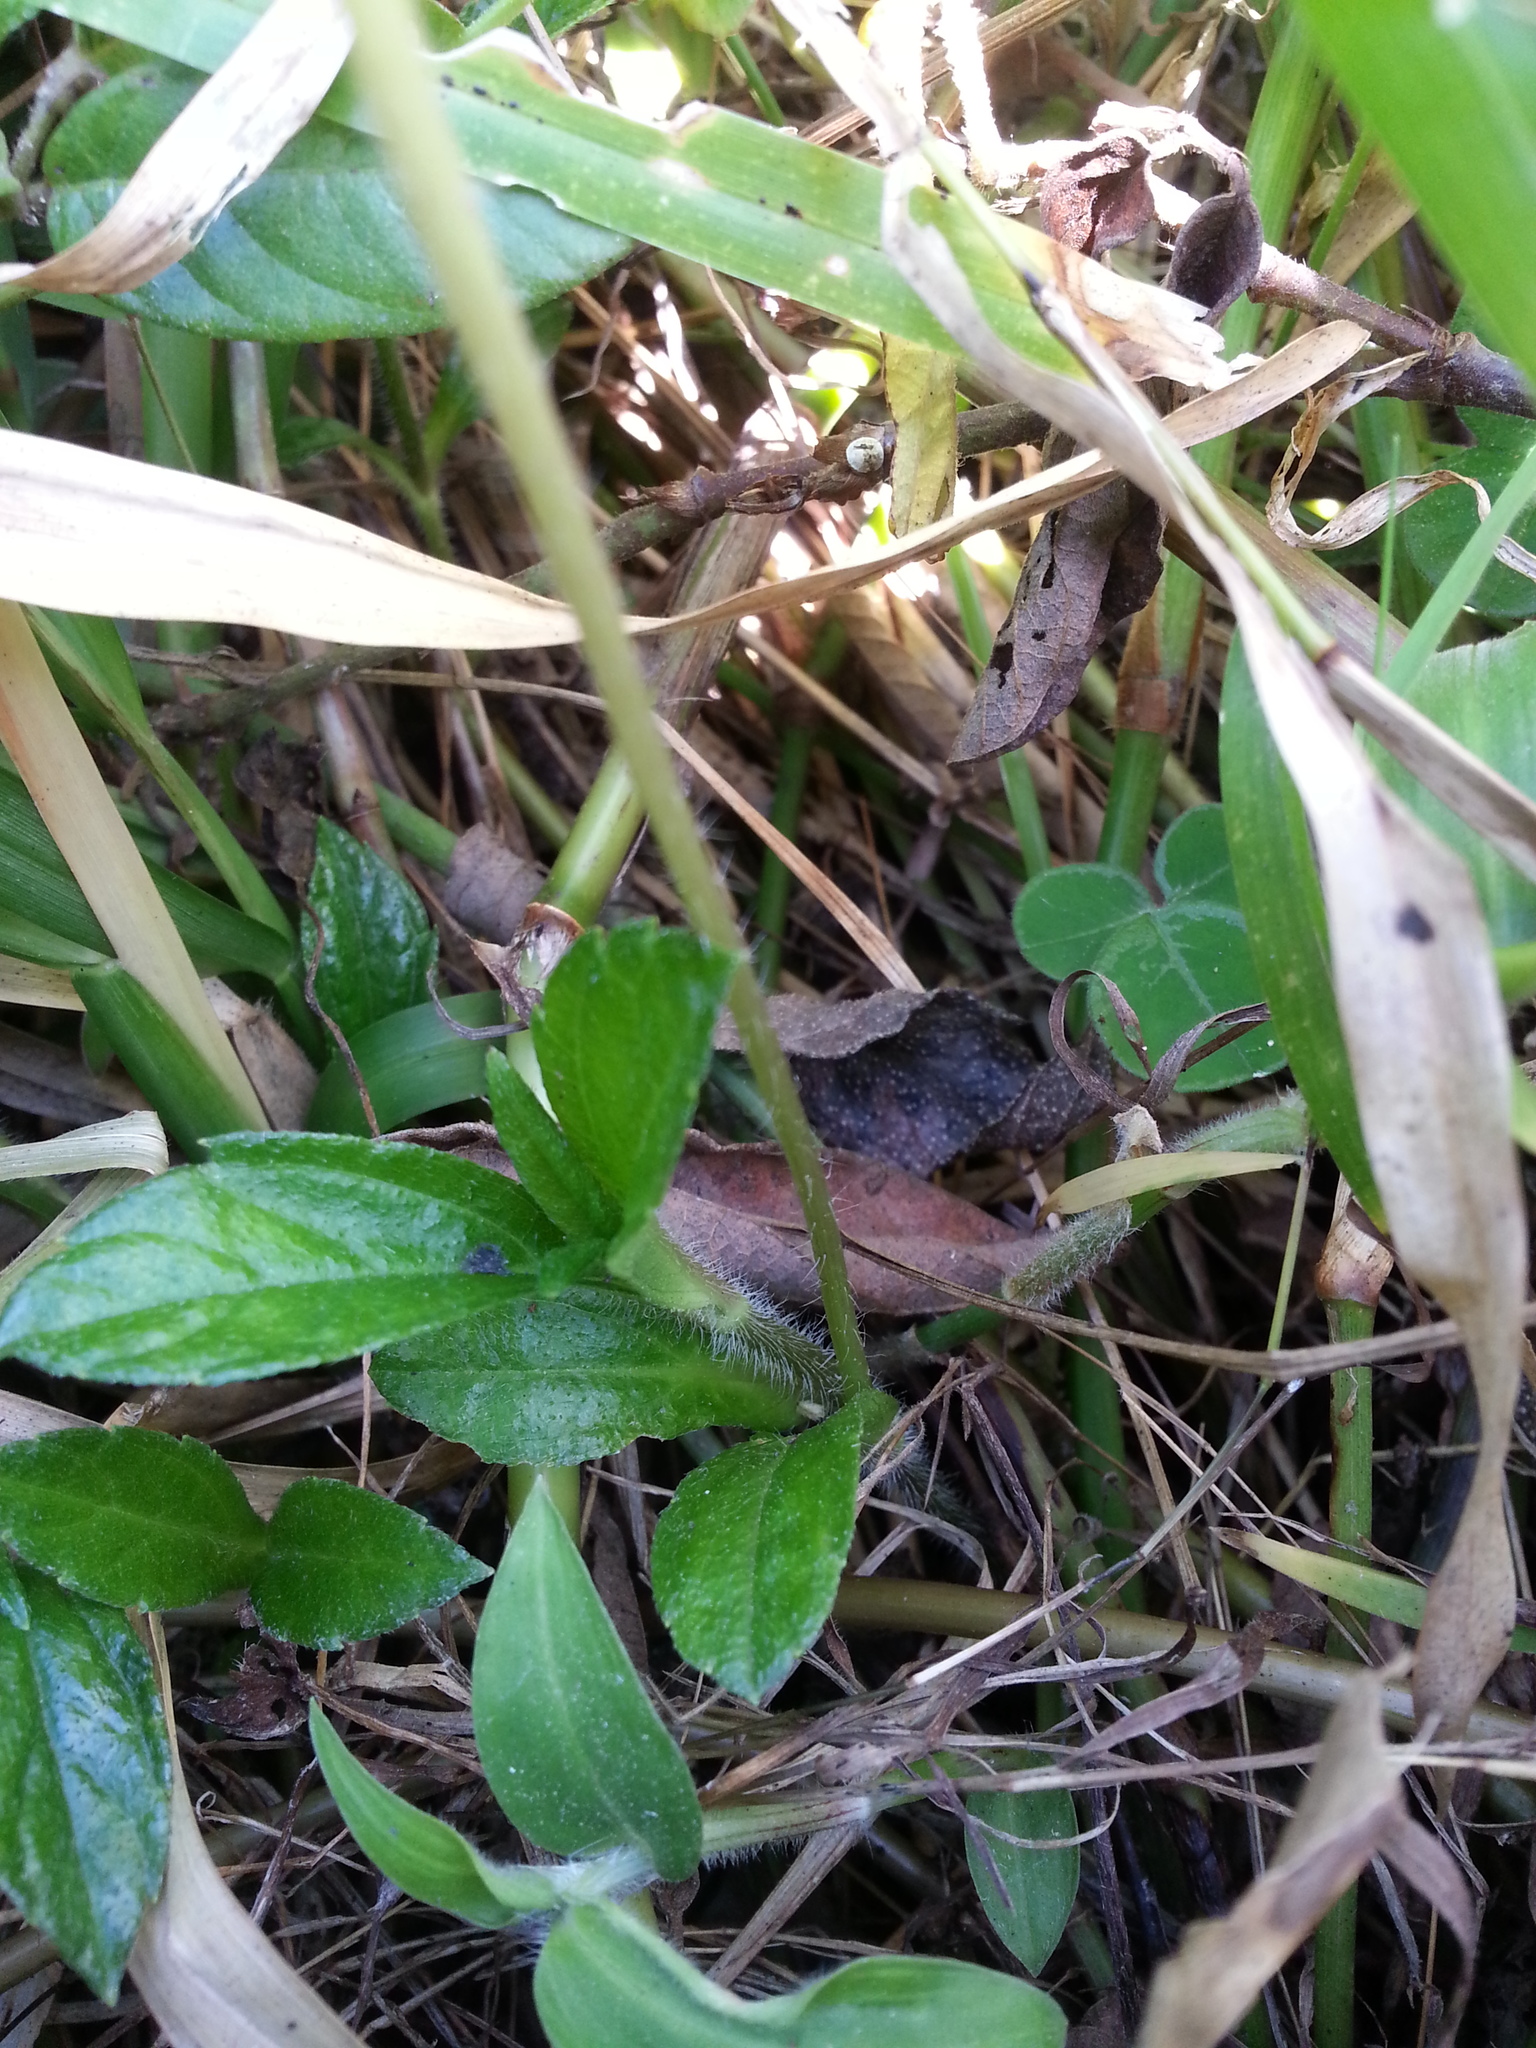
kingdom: Plantae
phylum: Tracheophyta
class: Magnoliopsida
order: Asterales
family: Asteraceae
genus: Sphagneticola
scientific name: Sphagneticola trilobata
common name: Bay biscayne creeping-oxeye
